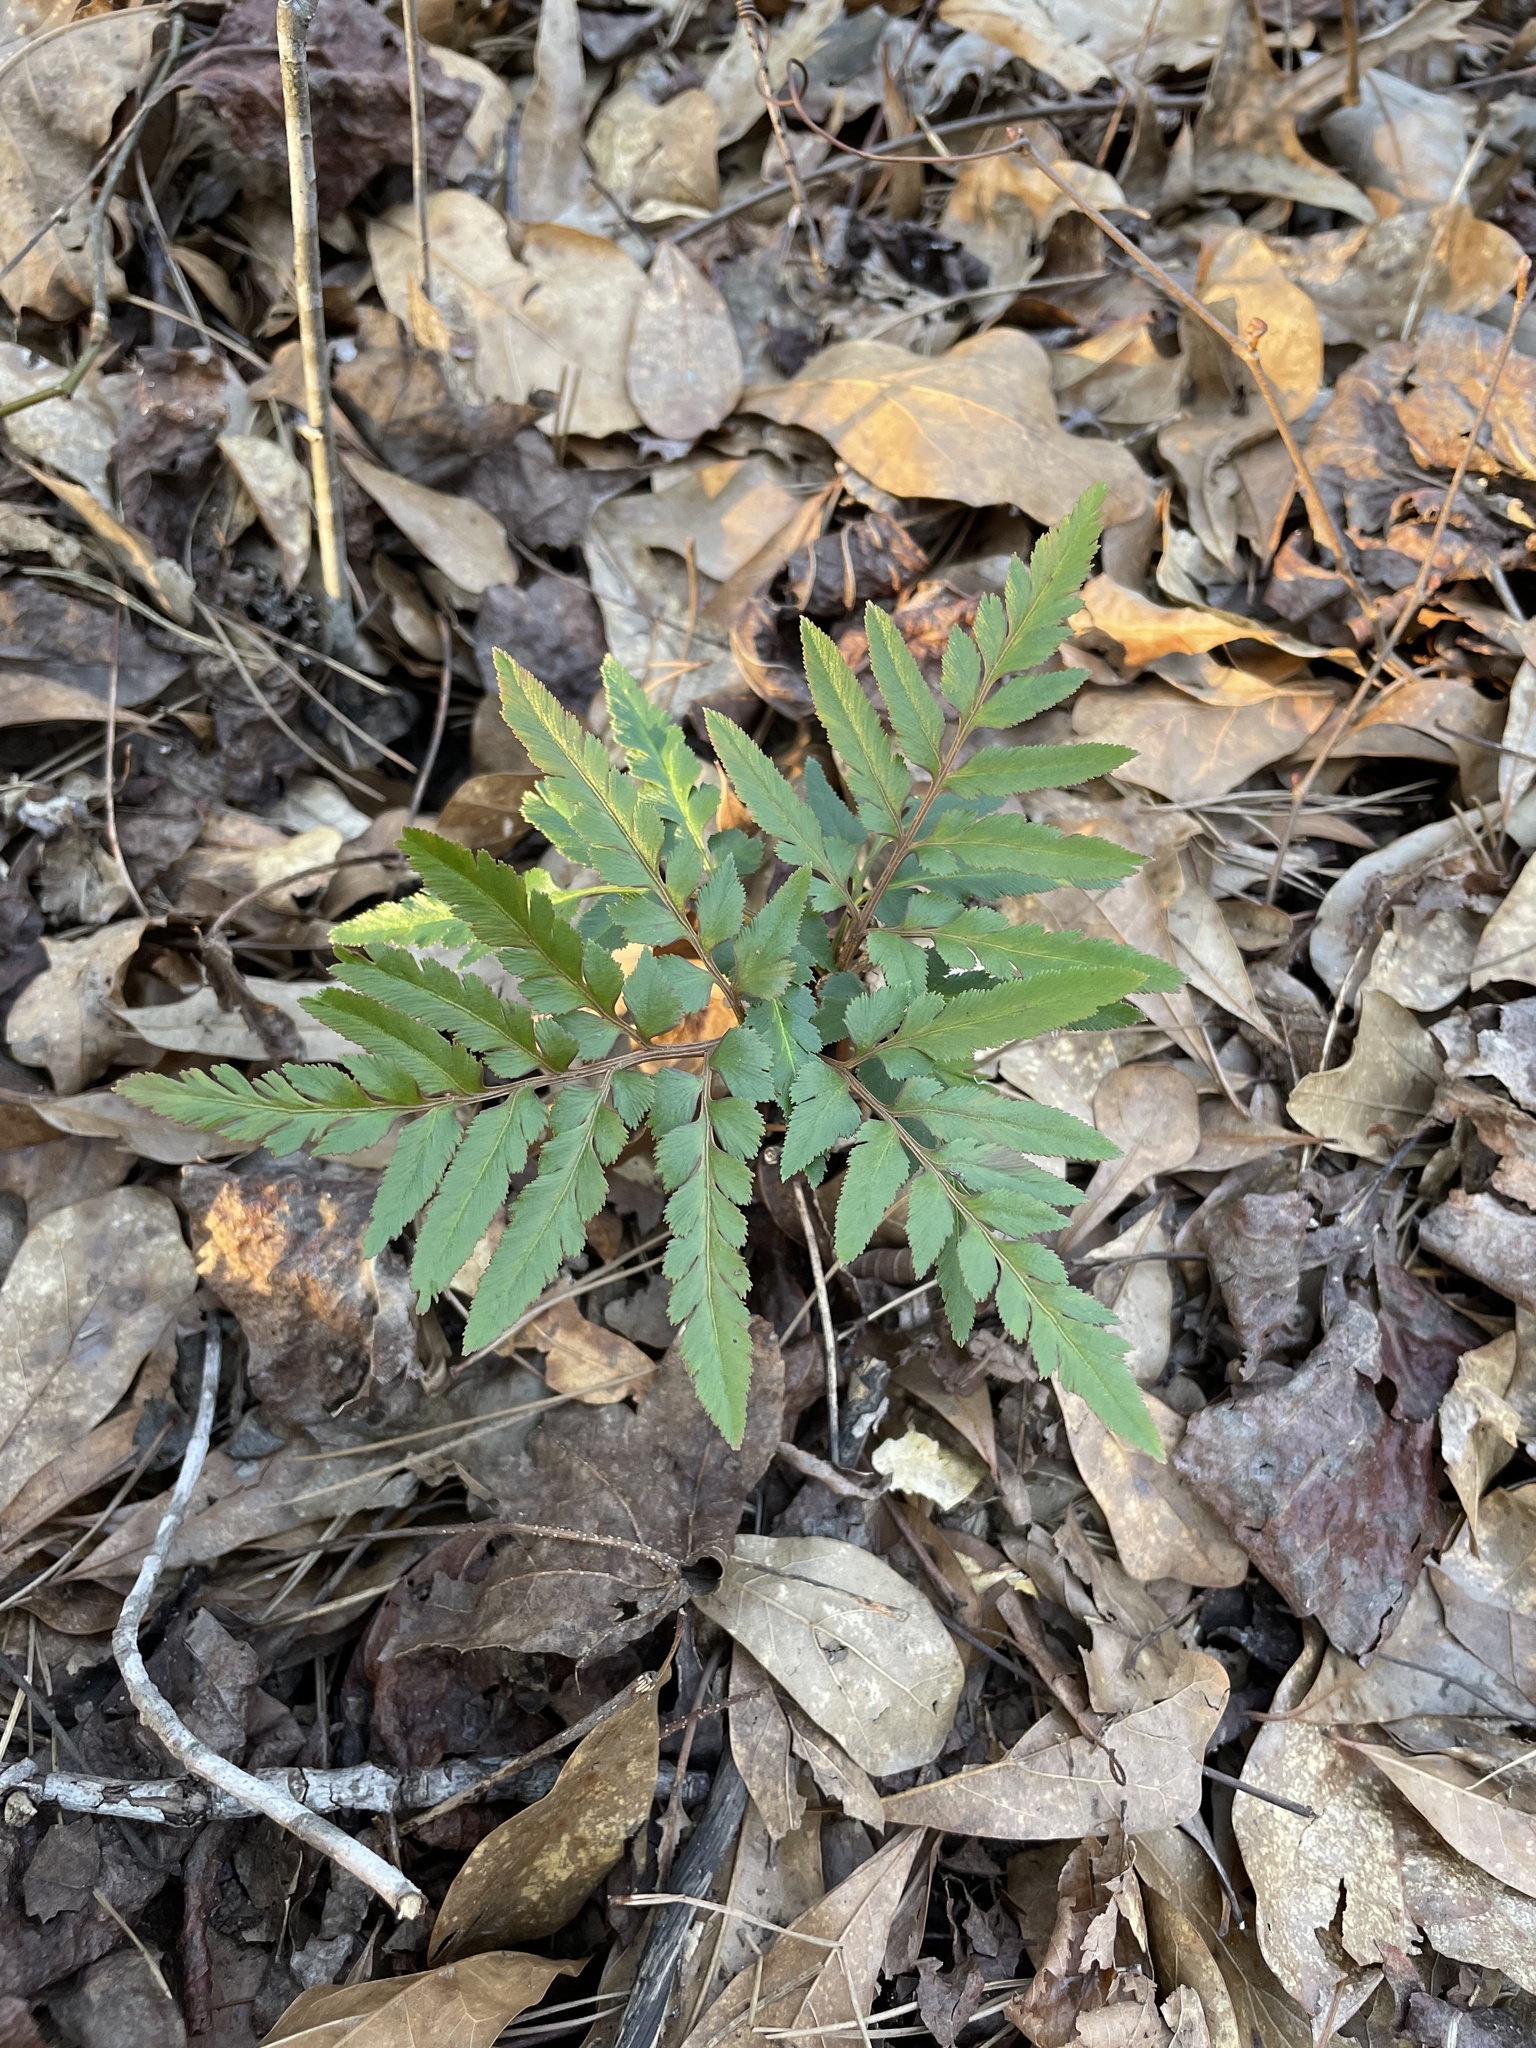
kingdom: Plantae
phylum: Tracheophyta
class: Polypodiopsida
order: Ophioglossales
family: Ophioglossaceae
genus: Sceptridium
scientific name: Sceptridium dissectum
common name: Cut-leaved grapefern
